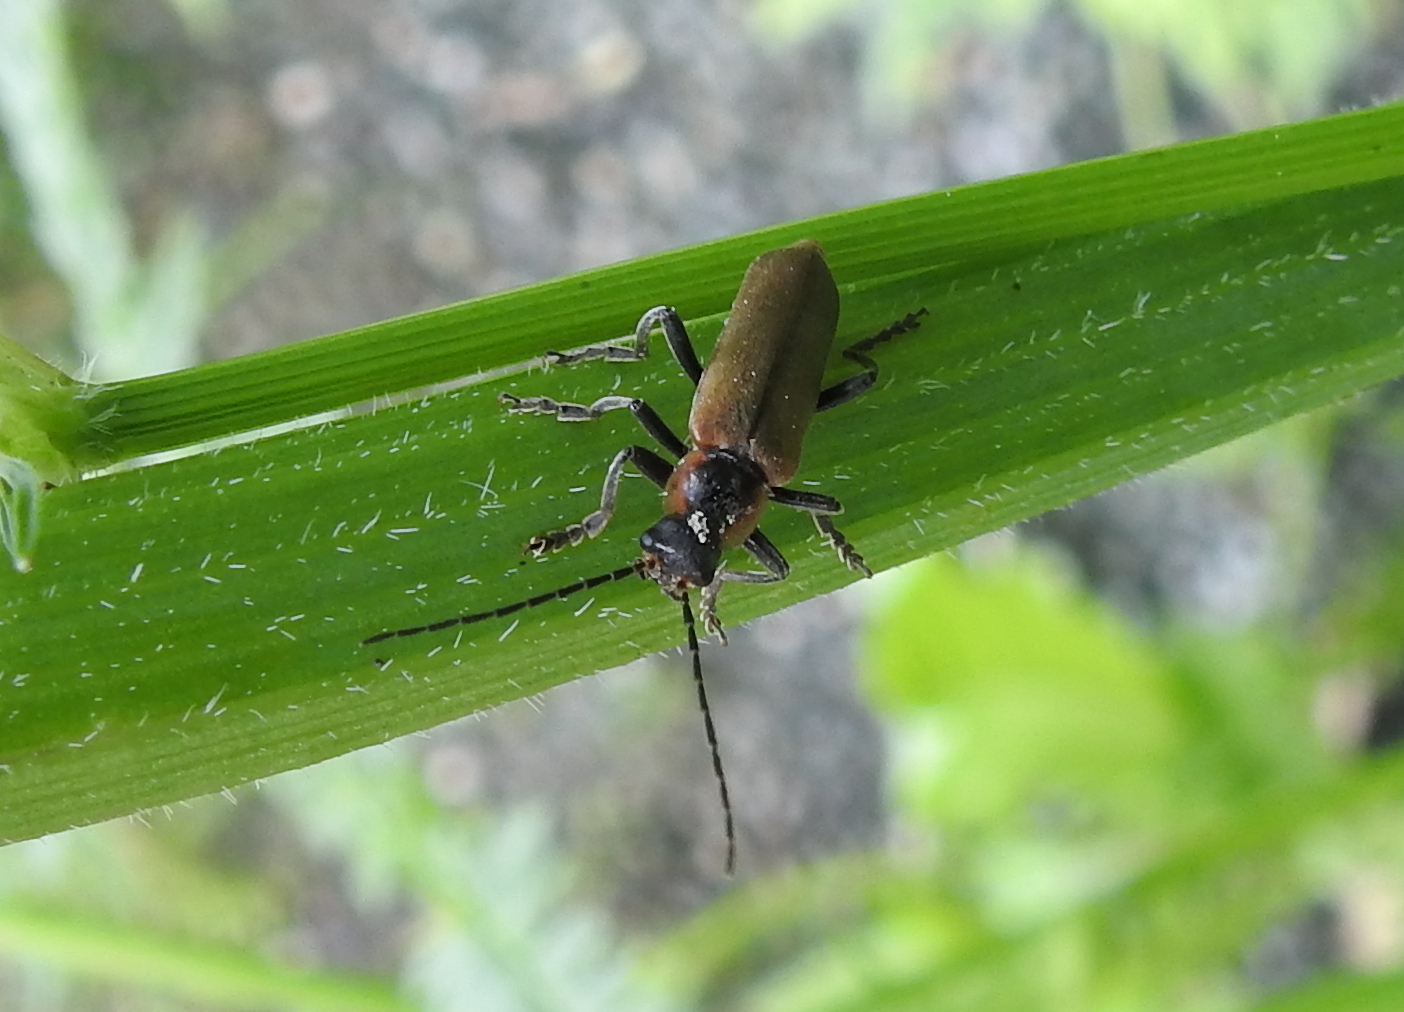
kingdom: Animalia
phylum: Arthropoda
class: Insecta
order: Coleoptera
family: Cantharidae
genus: Cantharis
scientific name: Cantharis quadripunctata
